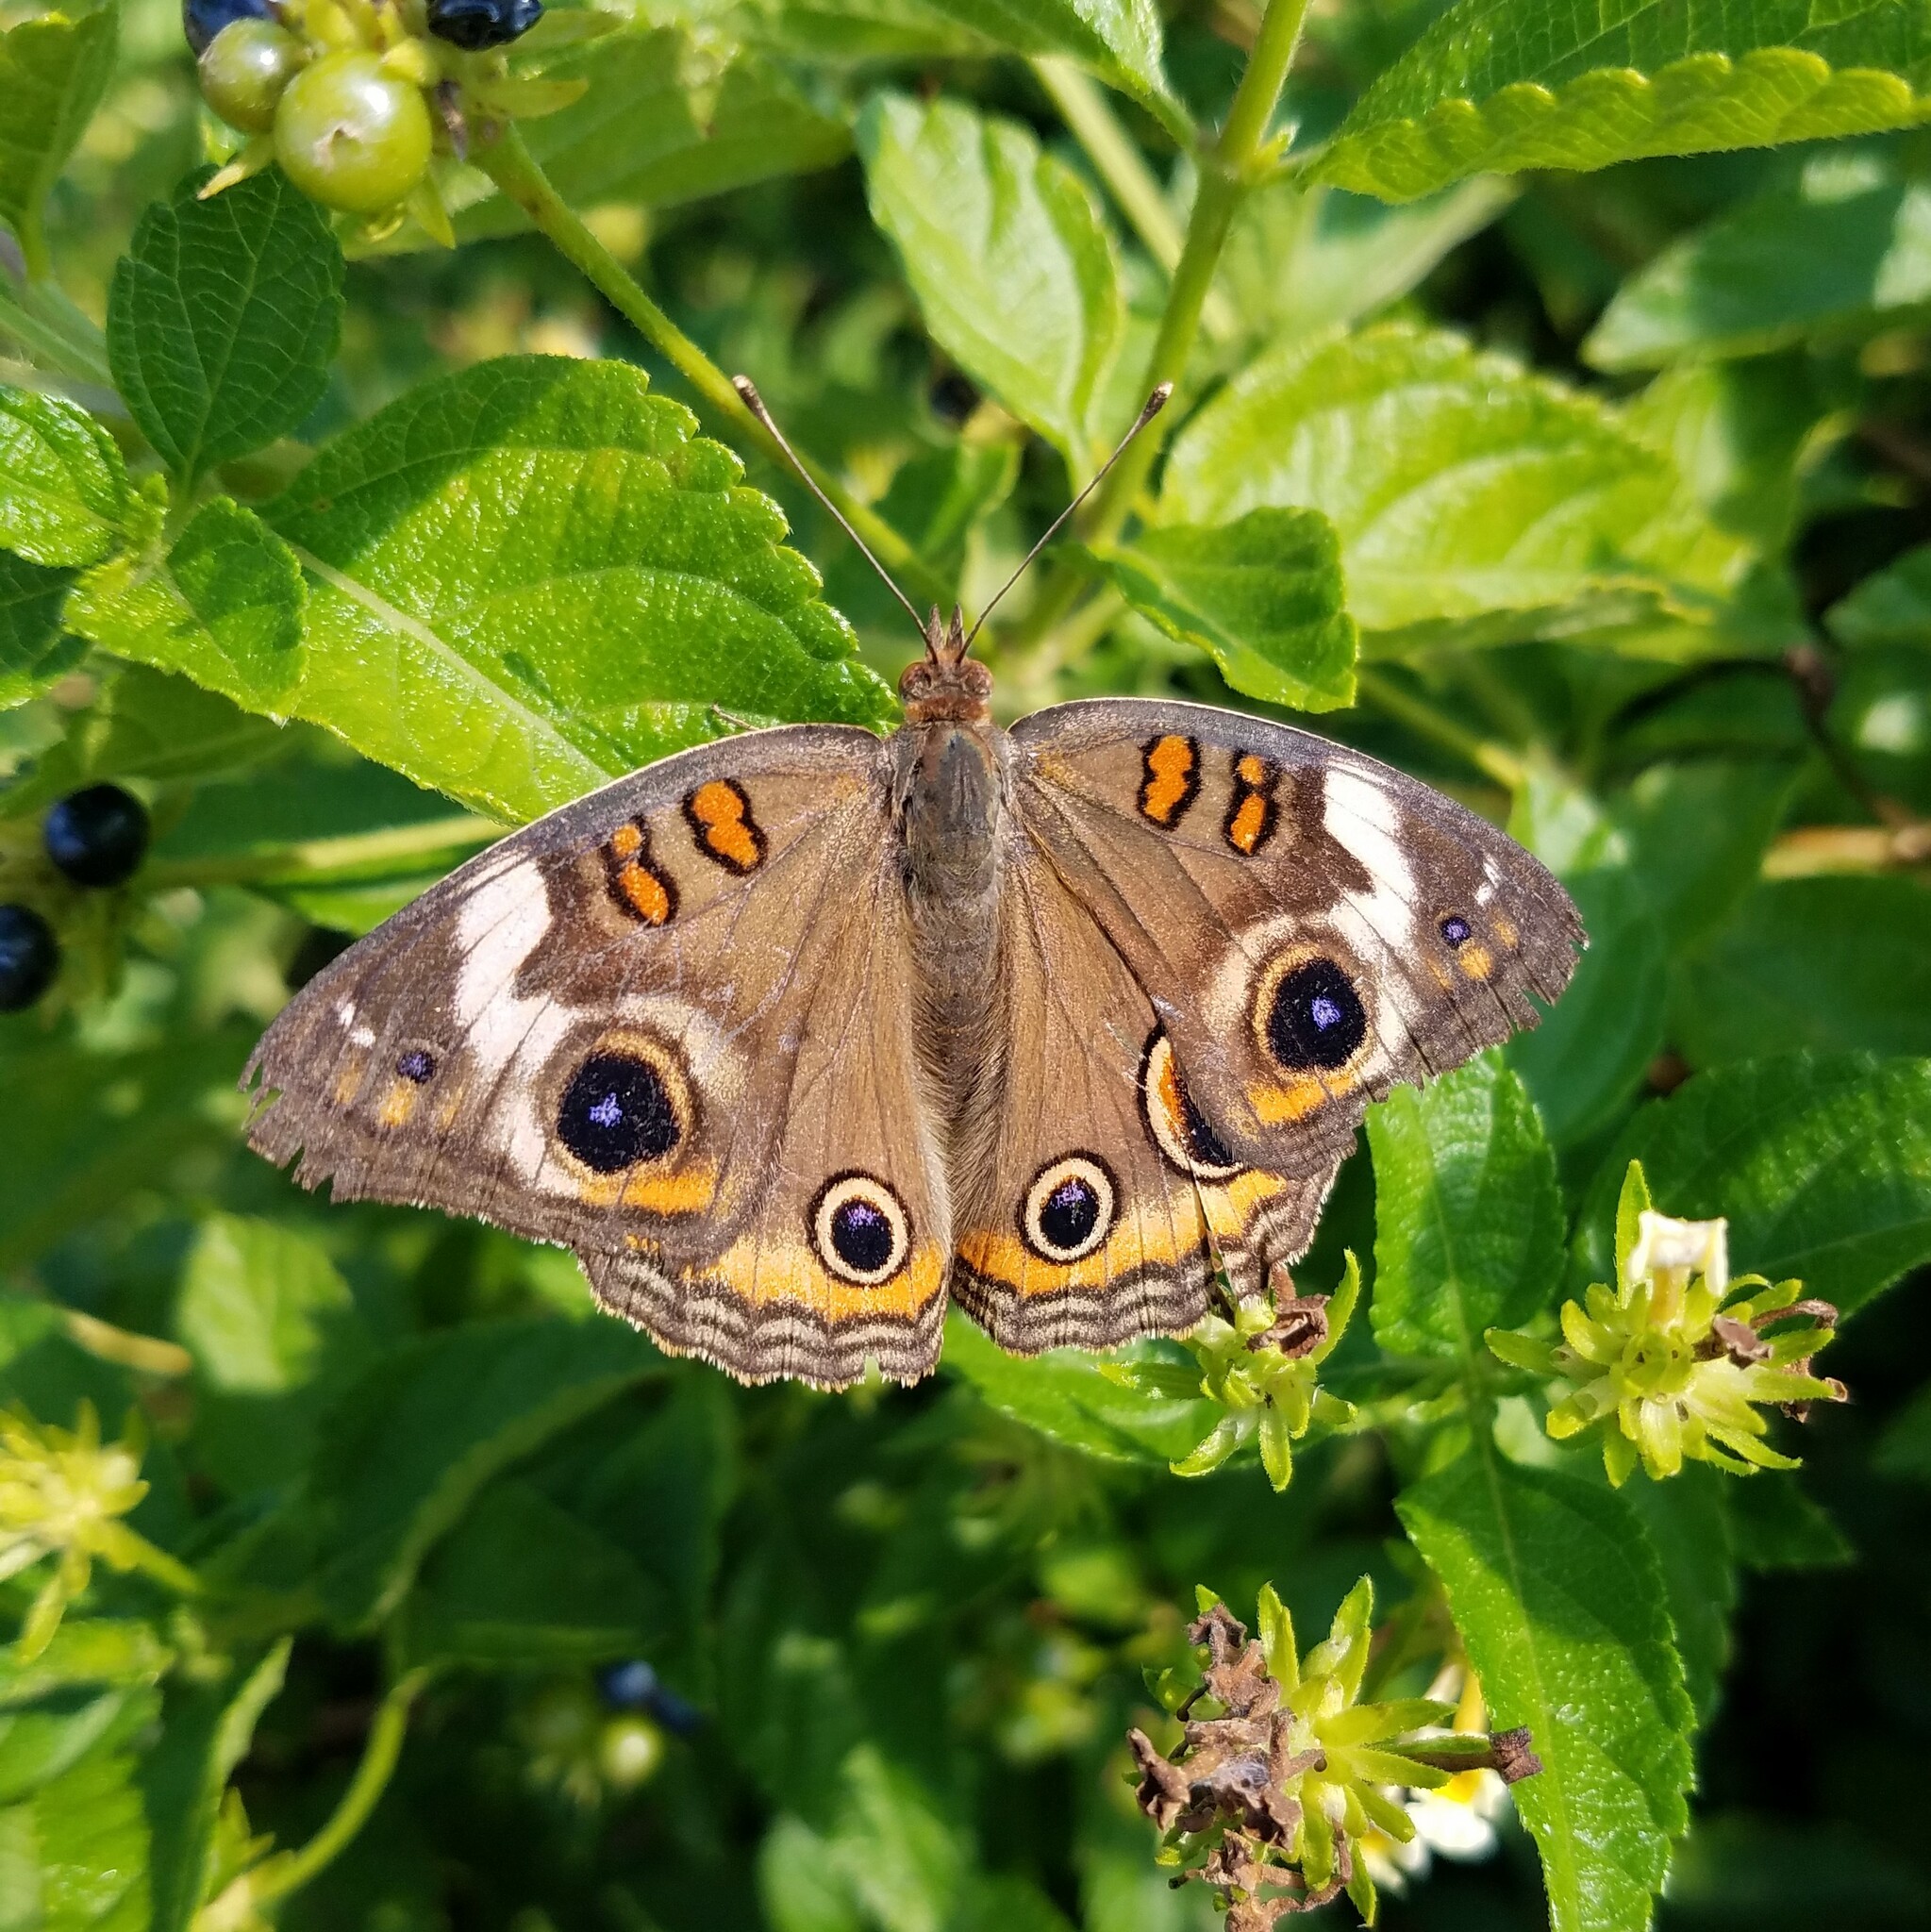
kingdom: Animalia
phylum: Arthropoda
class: Insecta
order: Lepidoptera
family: Nymphalidae
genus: Junonia
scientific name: Junonia coenia
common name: Common buckeye
